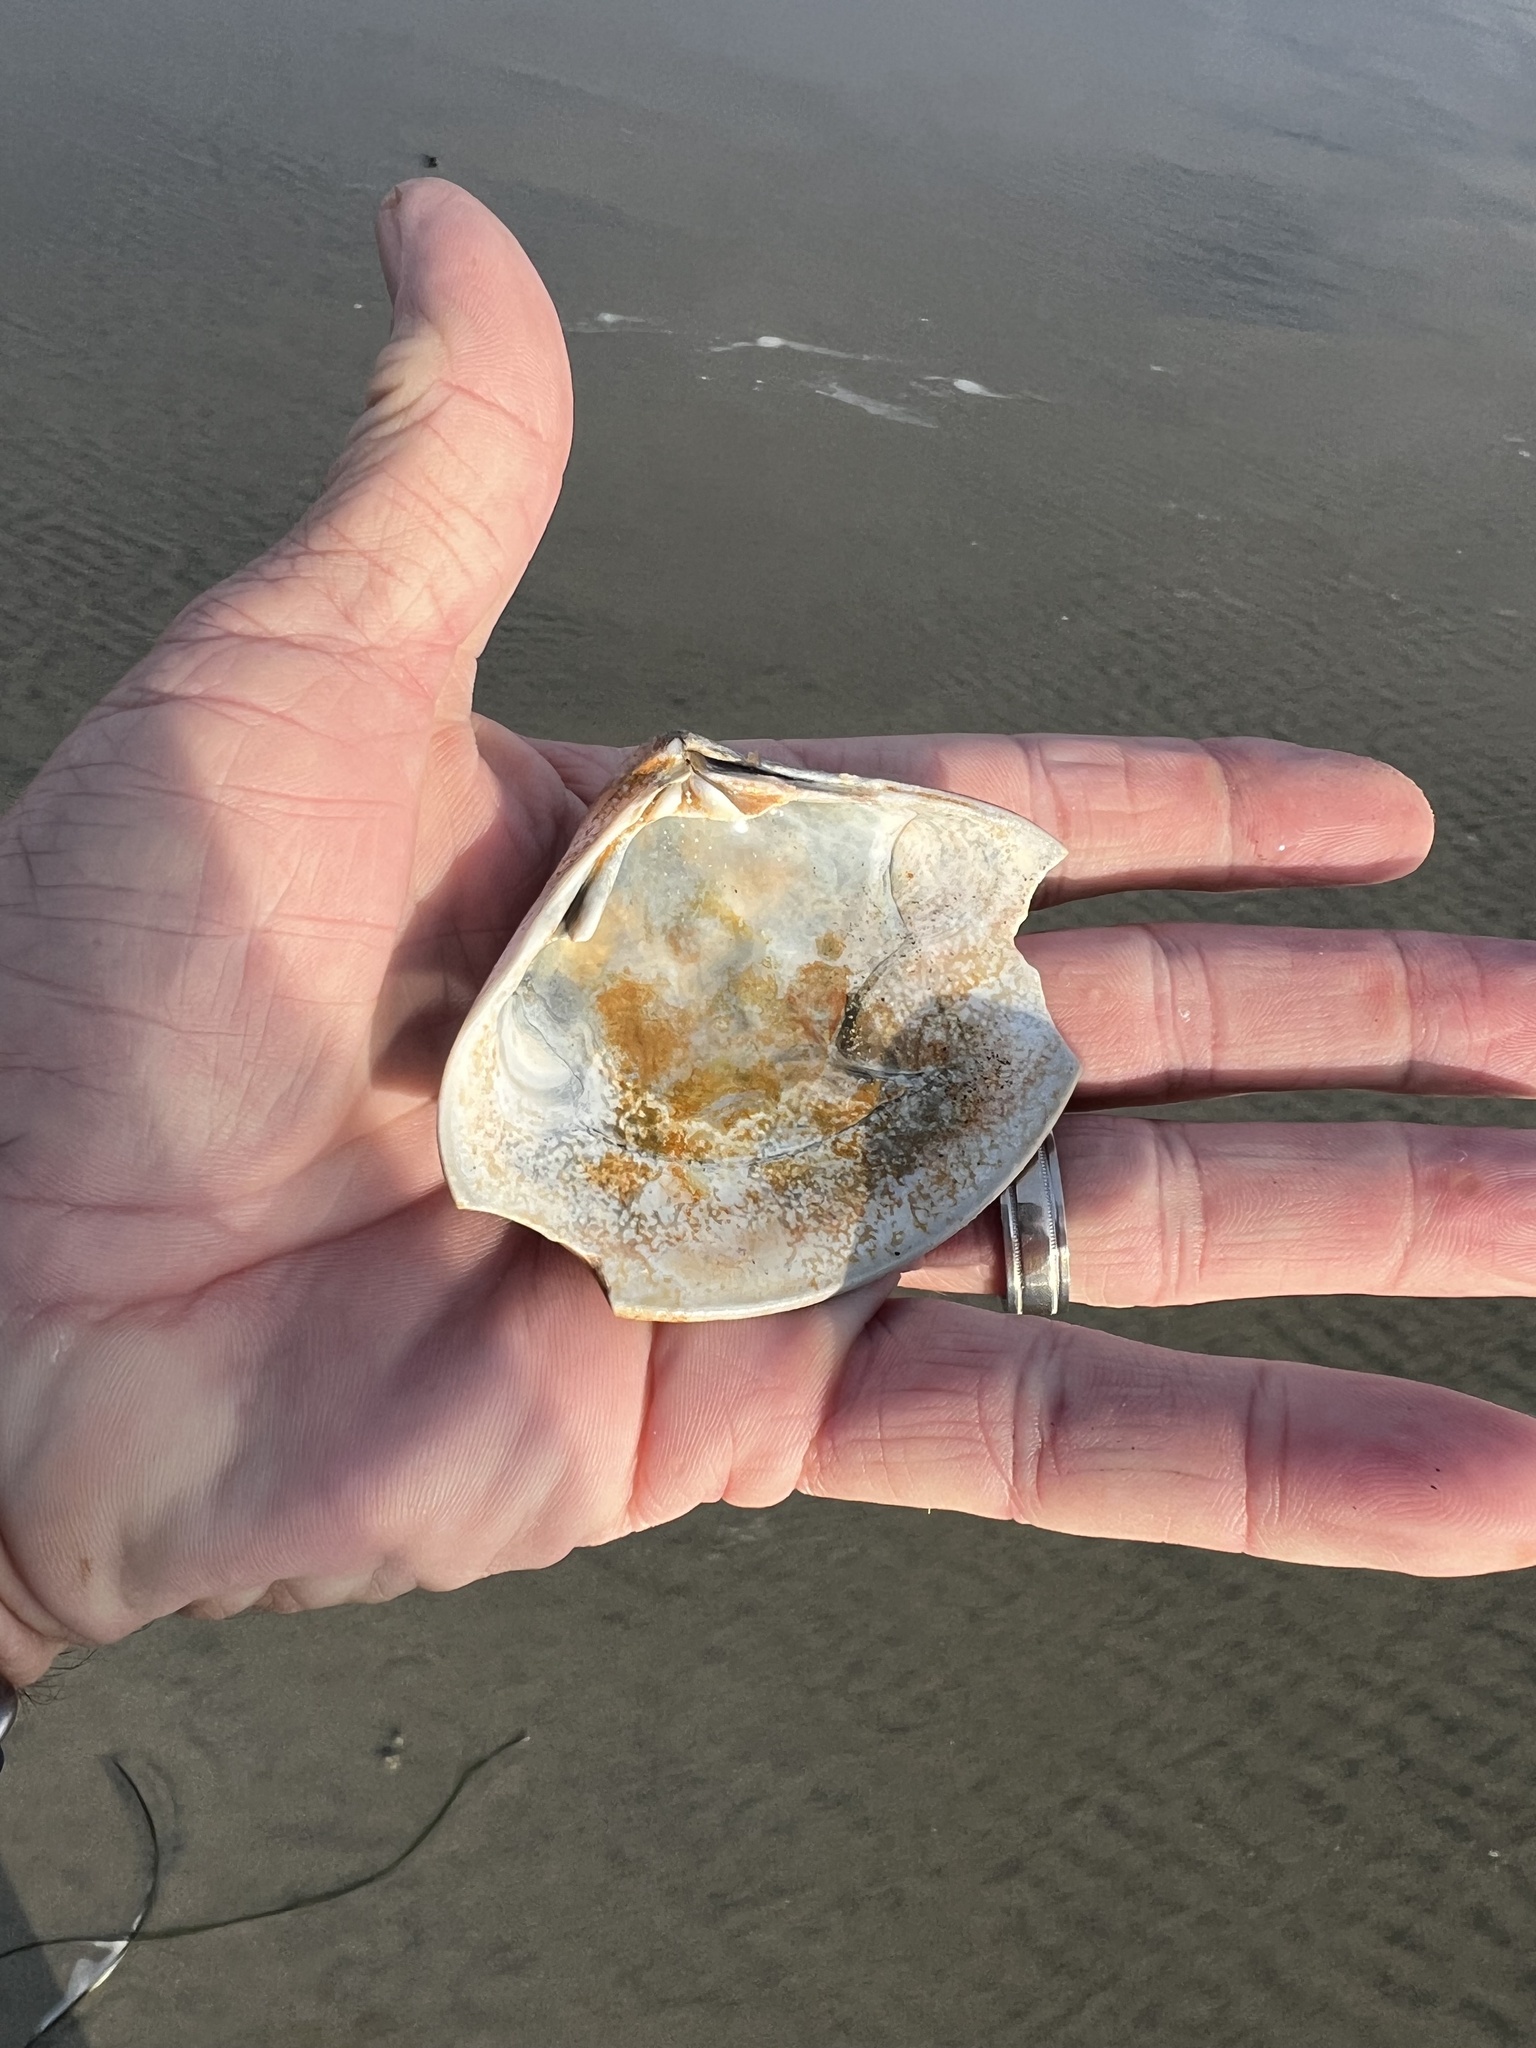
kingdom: Animalia
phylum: Mollusca
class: Bivalvia
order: Venerida
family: Veneridae
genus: Tivela
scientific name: Tivela stultorum
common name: Pismo clam
